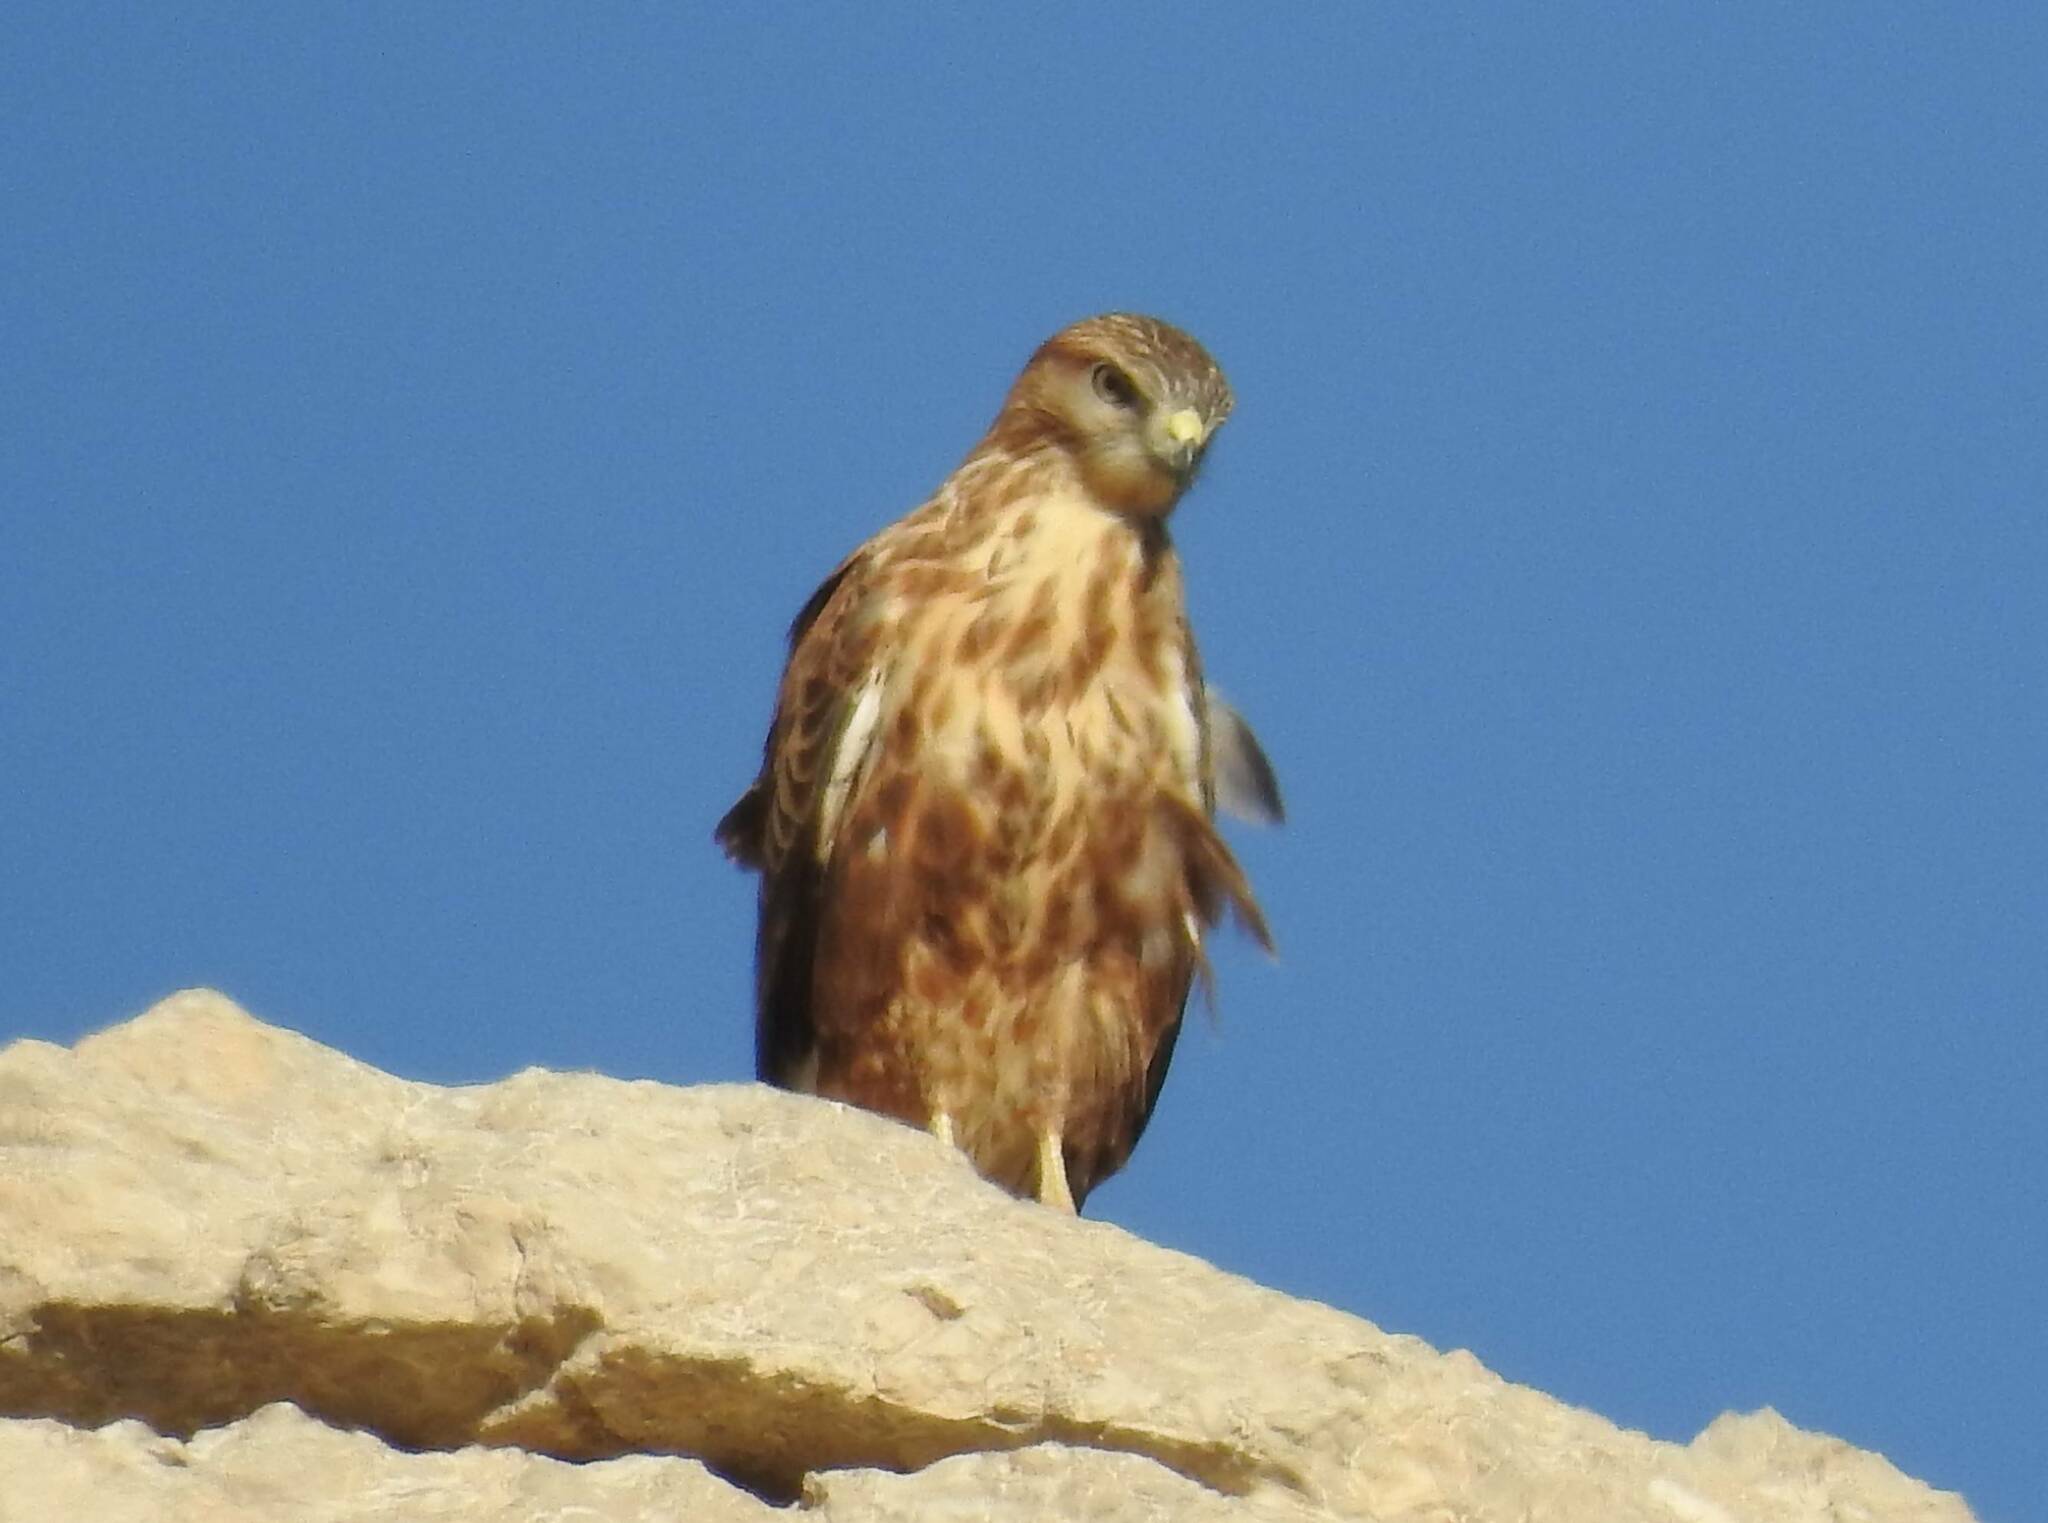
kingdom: Animalia
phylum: Chordata
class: Aves
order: Accipitriformes
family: Accipitridae
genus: Buteo
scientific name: Buteo rufinus
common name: Long-legged buzzard
